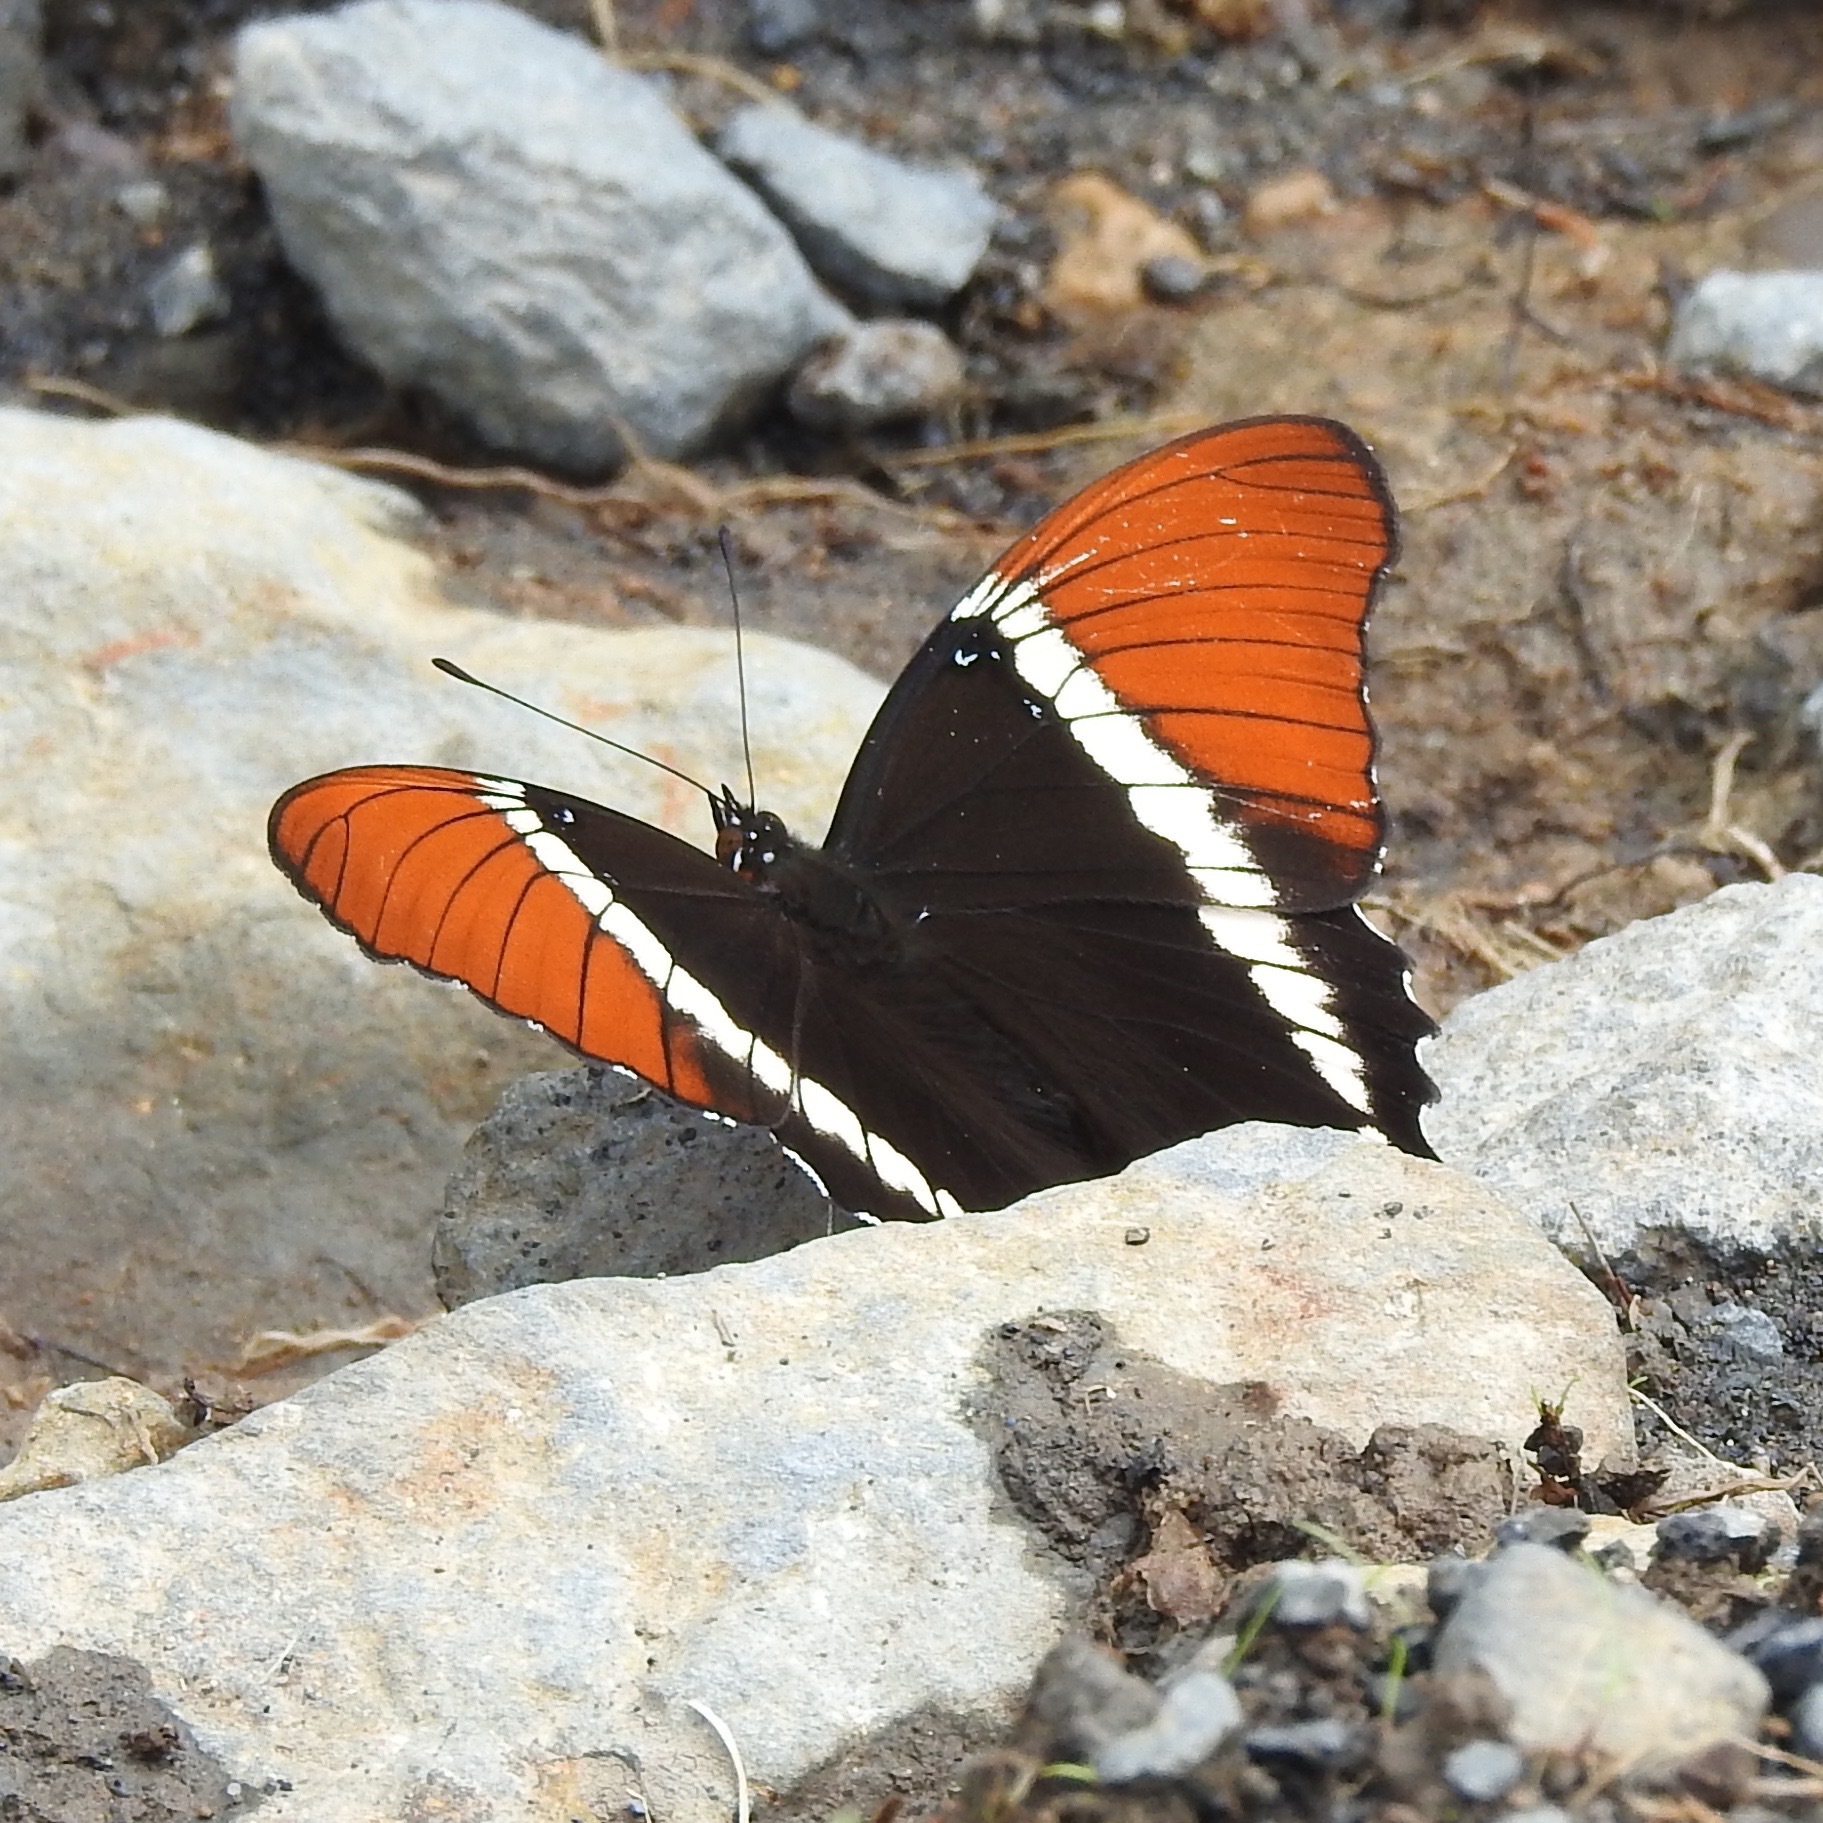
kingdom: Animalia
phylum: Arthropoda
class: Insecta
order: Lepidoptera
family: Nymphalidae
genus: Siproeta
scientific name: Siproeta epaphus
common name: Rusty-tipped page
